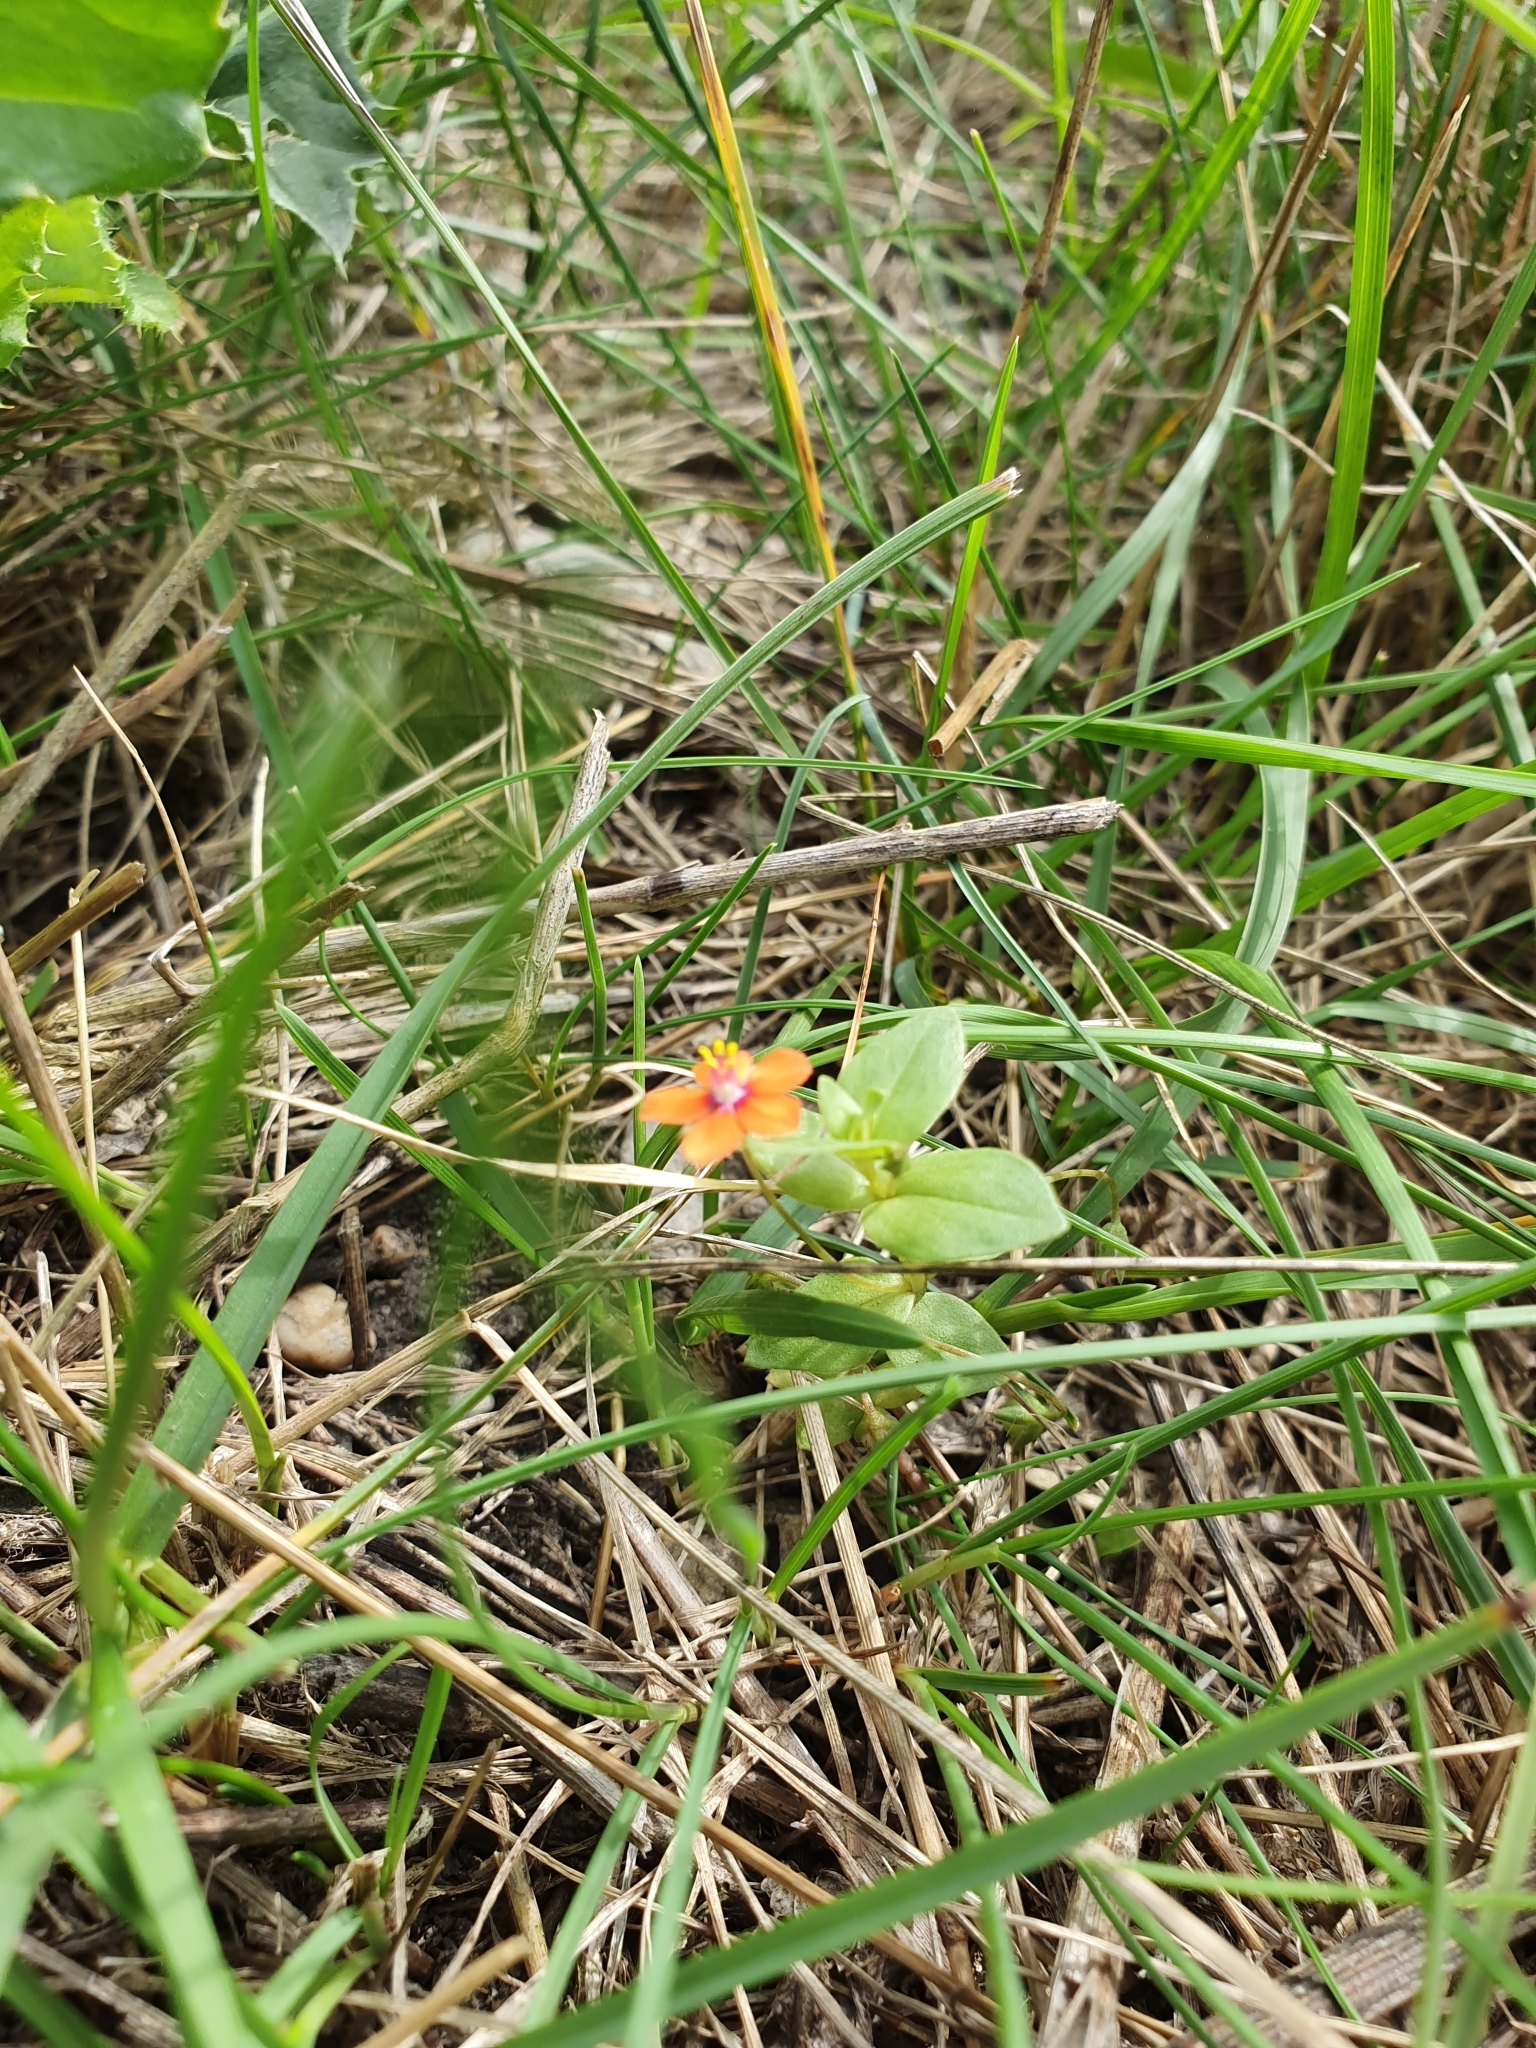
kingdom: Plantae
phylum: Tracheophyta
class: Magnoliopsida
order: Ericales
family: Primulaceae
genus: Lysimachia
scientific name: Lysimachia arvensis
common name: Scarlet pimpernel
